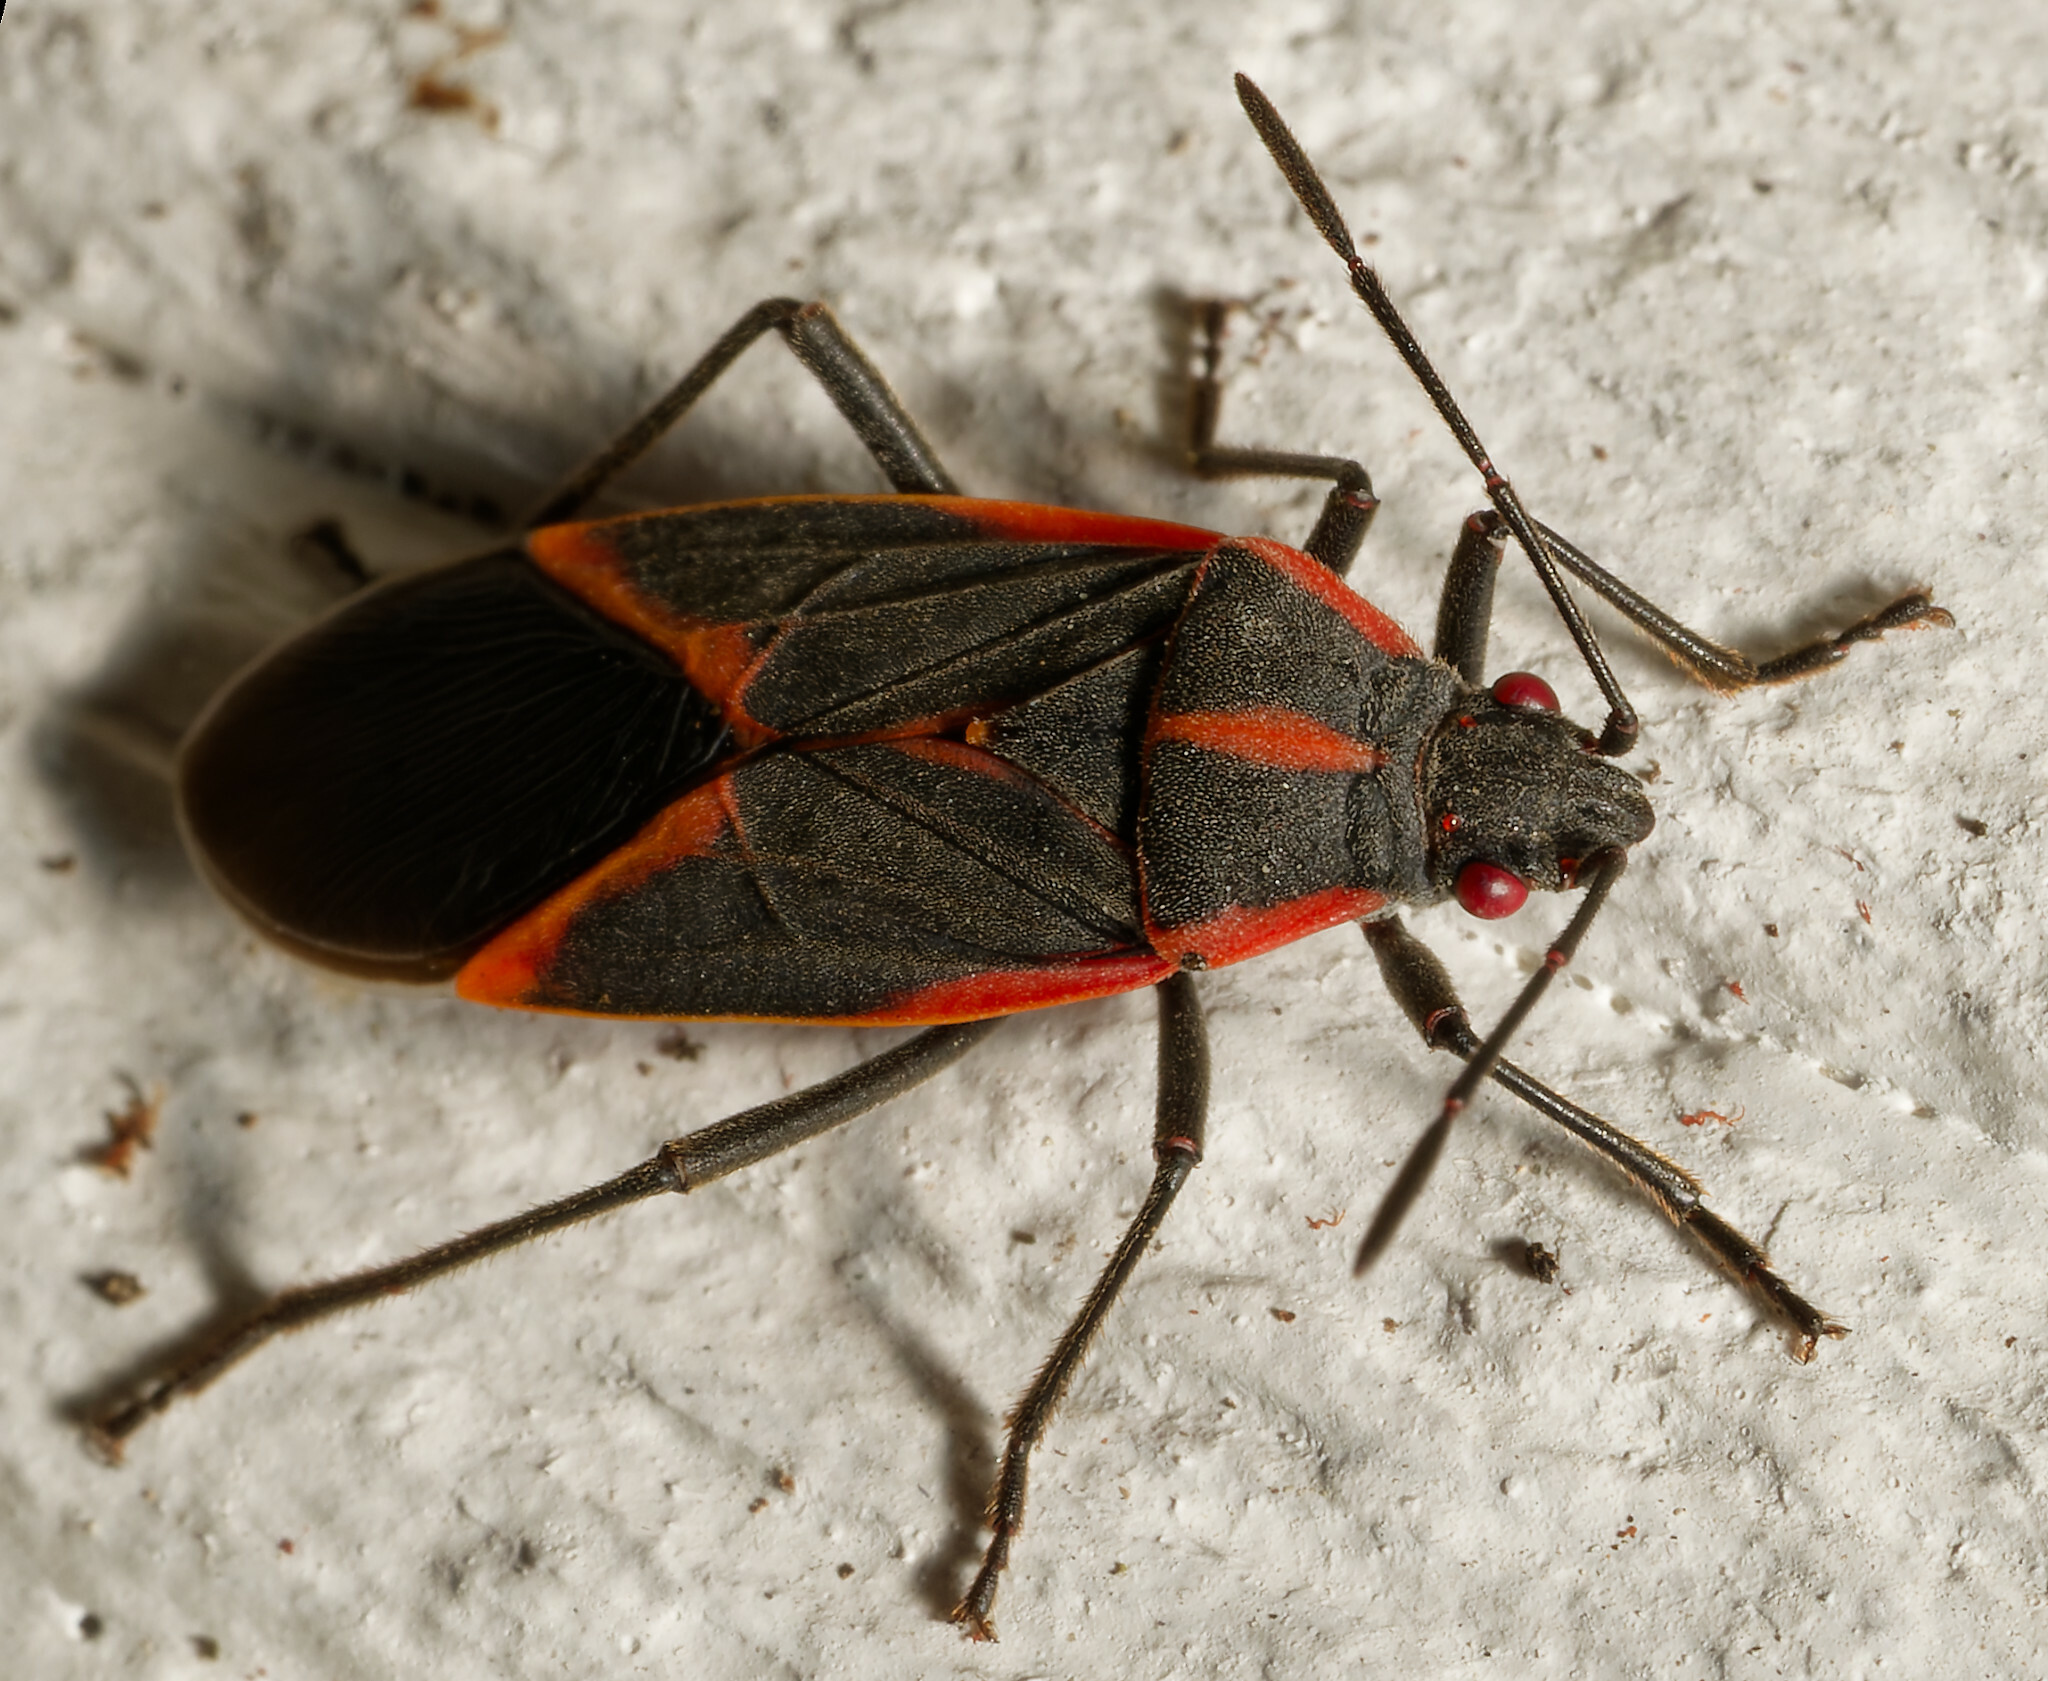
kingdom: Animalia
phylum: Arthropoda
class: Insecta
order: Hemiptera
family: Rhopalidae
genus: Boisea
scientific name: Boisea trivittata
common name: Boxelder bug
